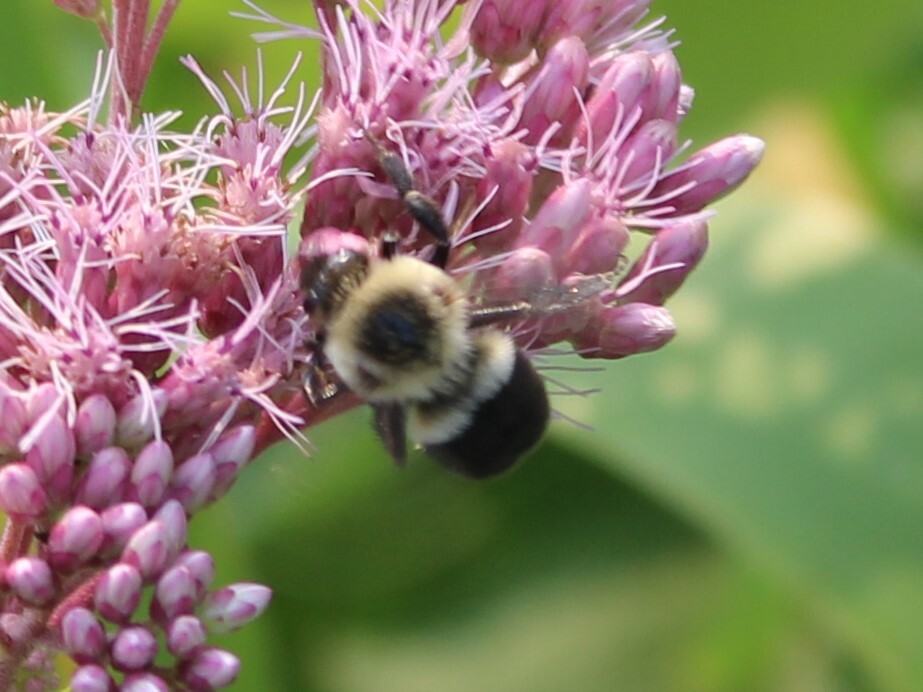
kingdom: Animalia
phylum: Arthropoda
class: Insecta
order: Hymenoptera
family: Apidae
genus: Bombus
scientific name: Bombus impatiens
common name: Common eastern bumble bee
